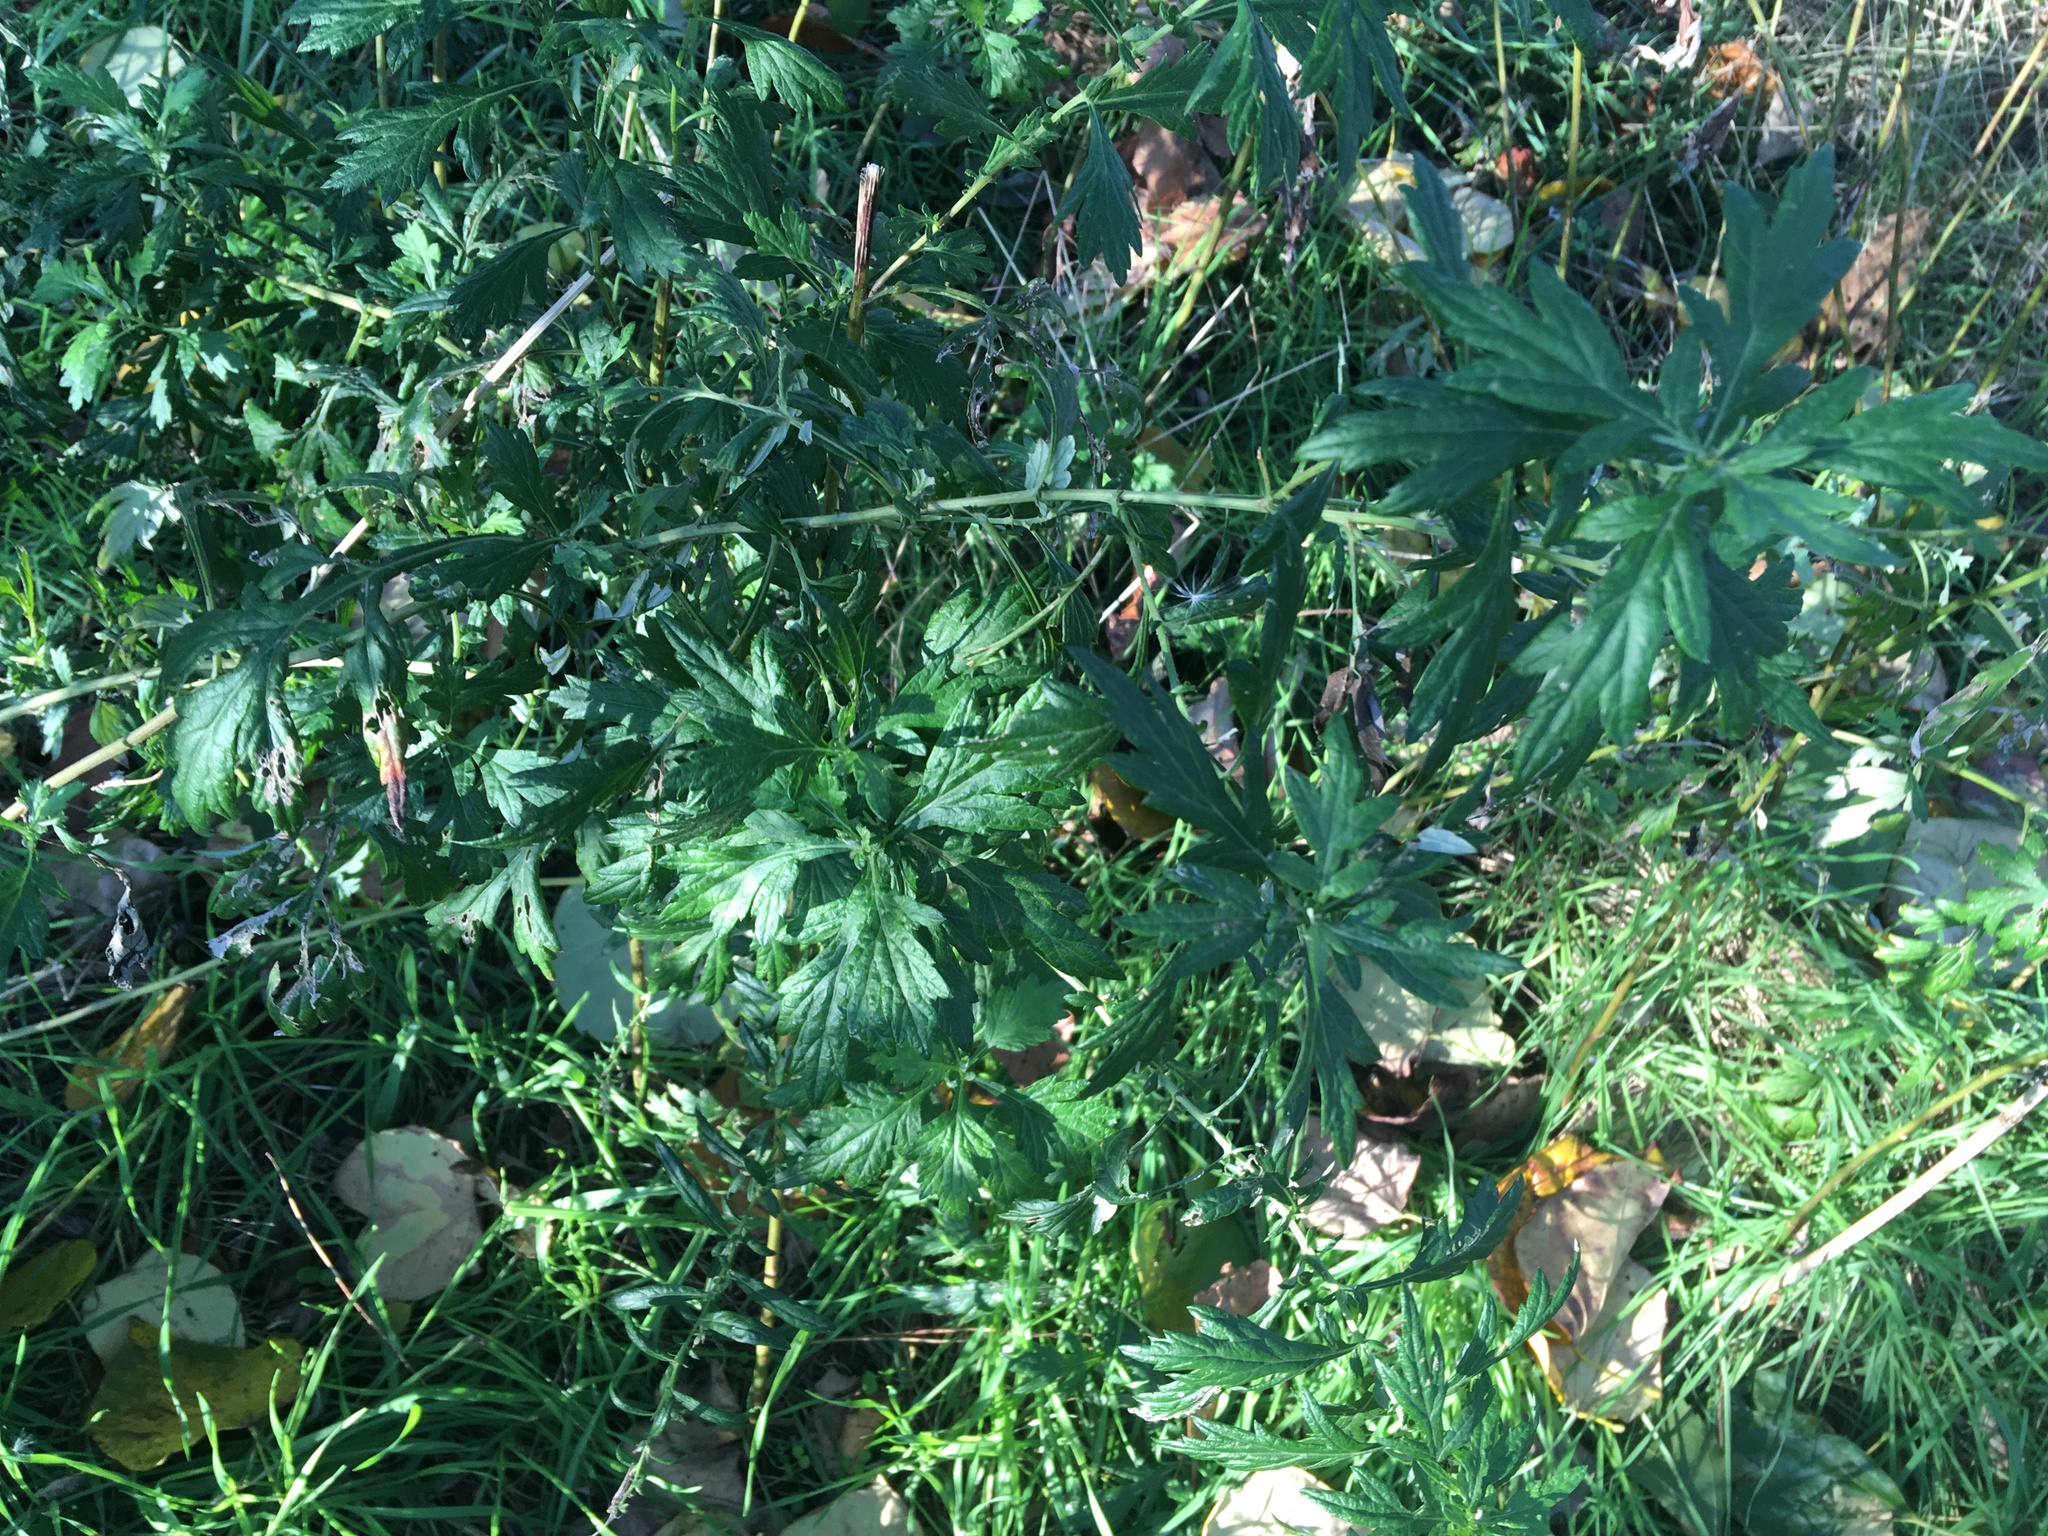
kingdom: Plantae
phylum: Tracheophyta
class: Magnoliopsida
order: Asterales
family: Asteraceae
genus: Artemisia
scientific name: Artemisia vulgaris
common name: Mugwort
